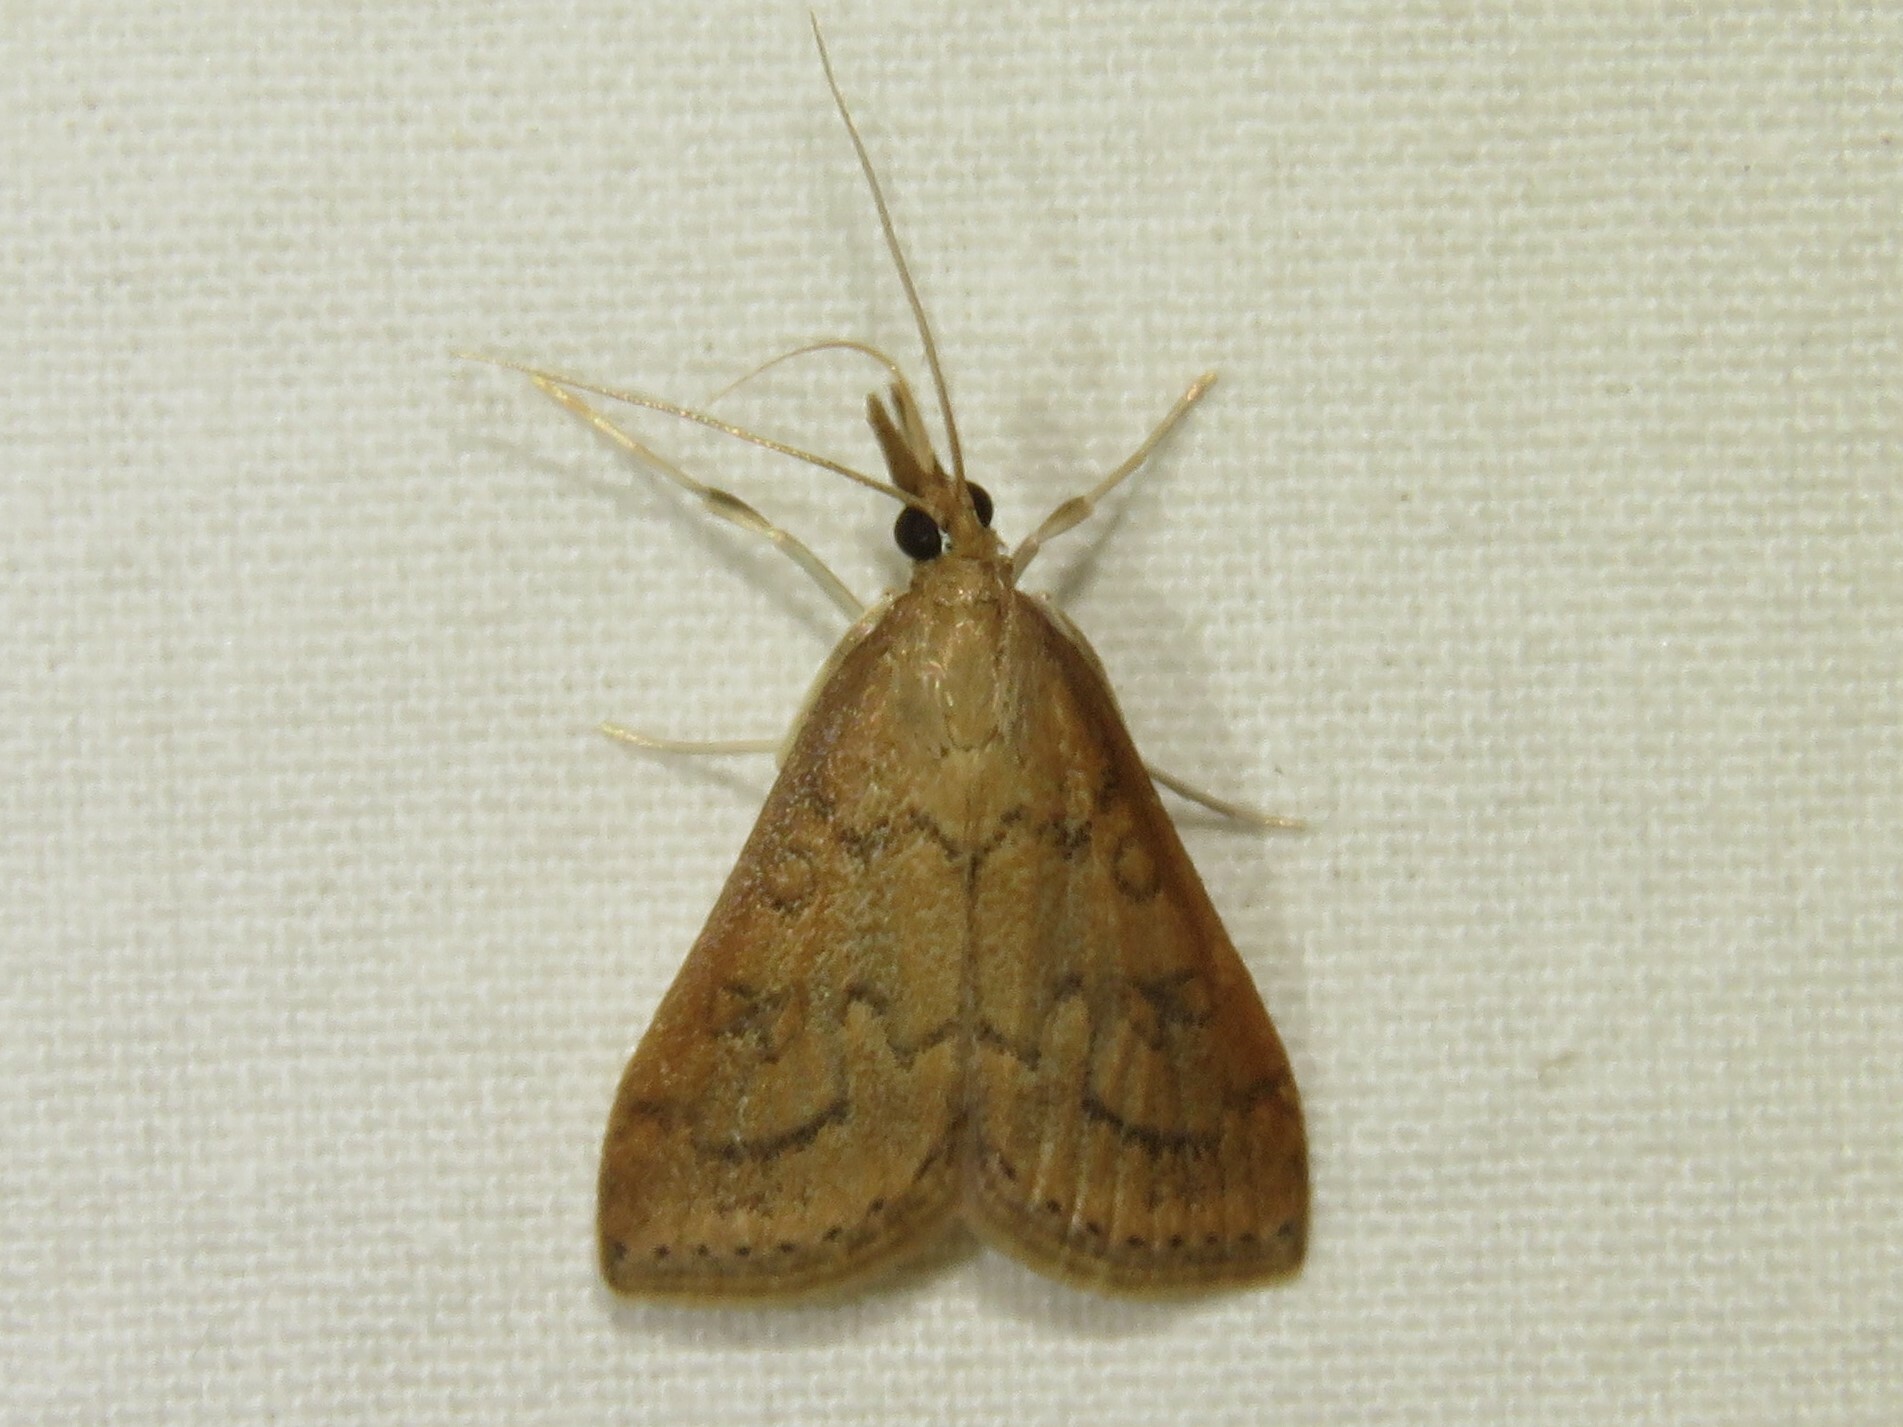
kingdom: Animalia
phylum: Arthropoda
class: Insecta
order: Lepidoptera
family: Crambidae
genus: Udea
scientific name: Udea rubigalis
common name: Celery leaftier moth
